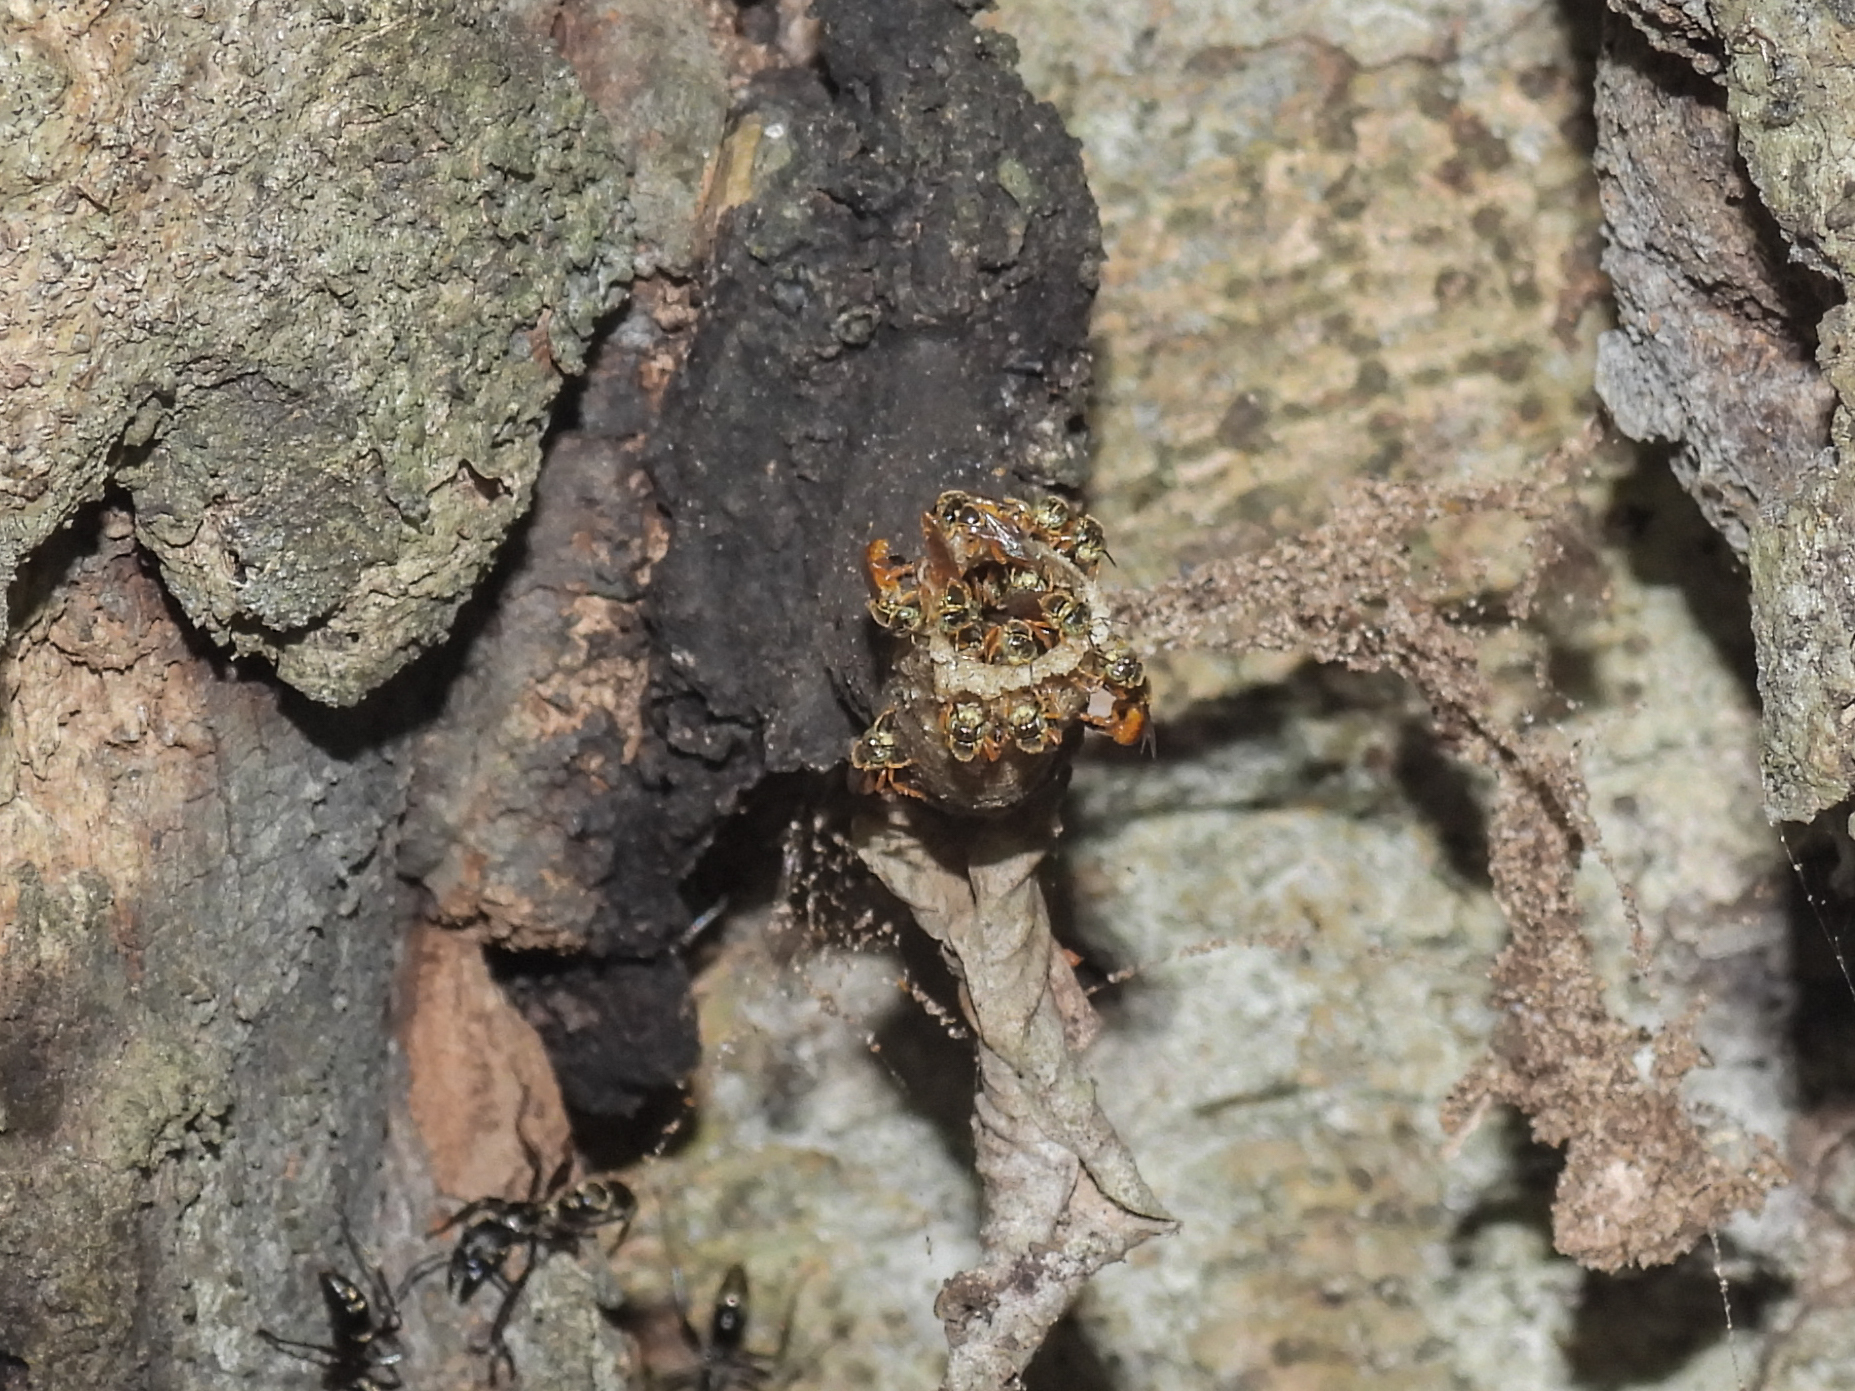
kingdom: Animalia
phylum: Arthropoda
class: Insecta
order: Hymenoptera
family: Apidae
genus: Tetragonisca
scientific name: Tetragonisca angustula
